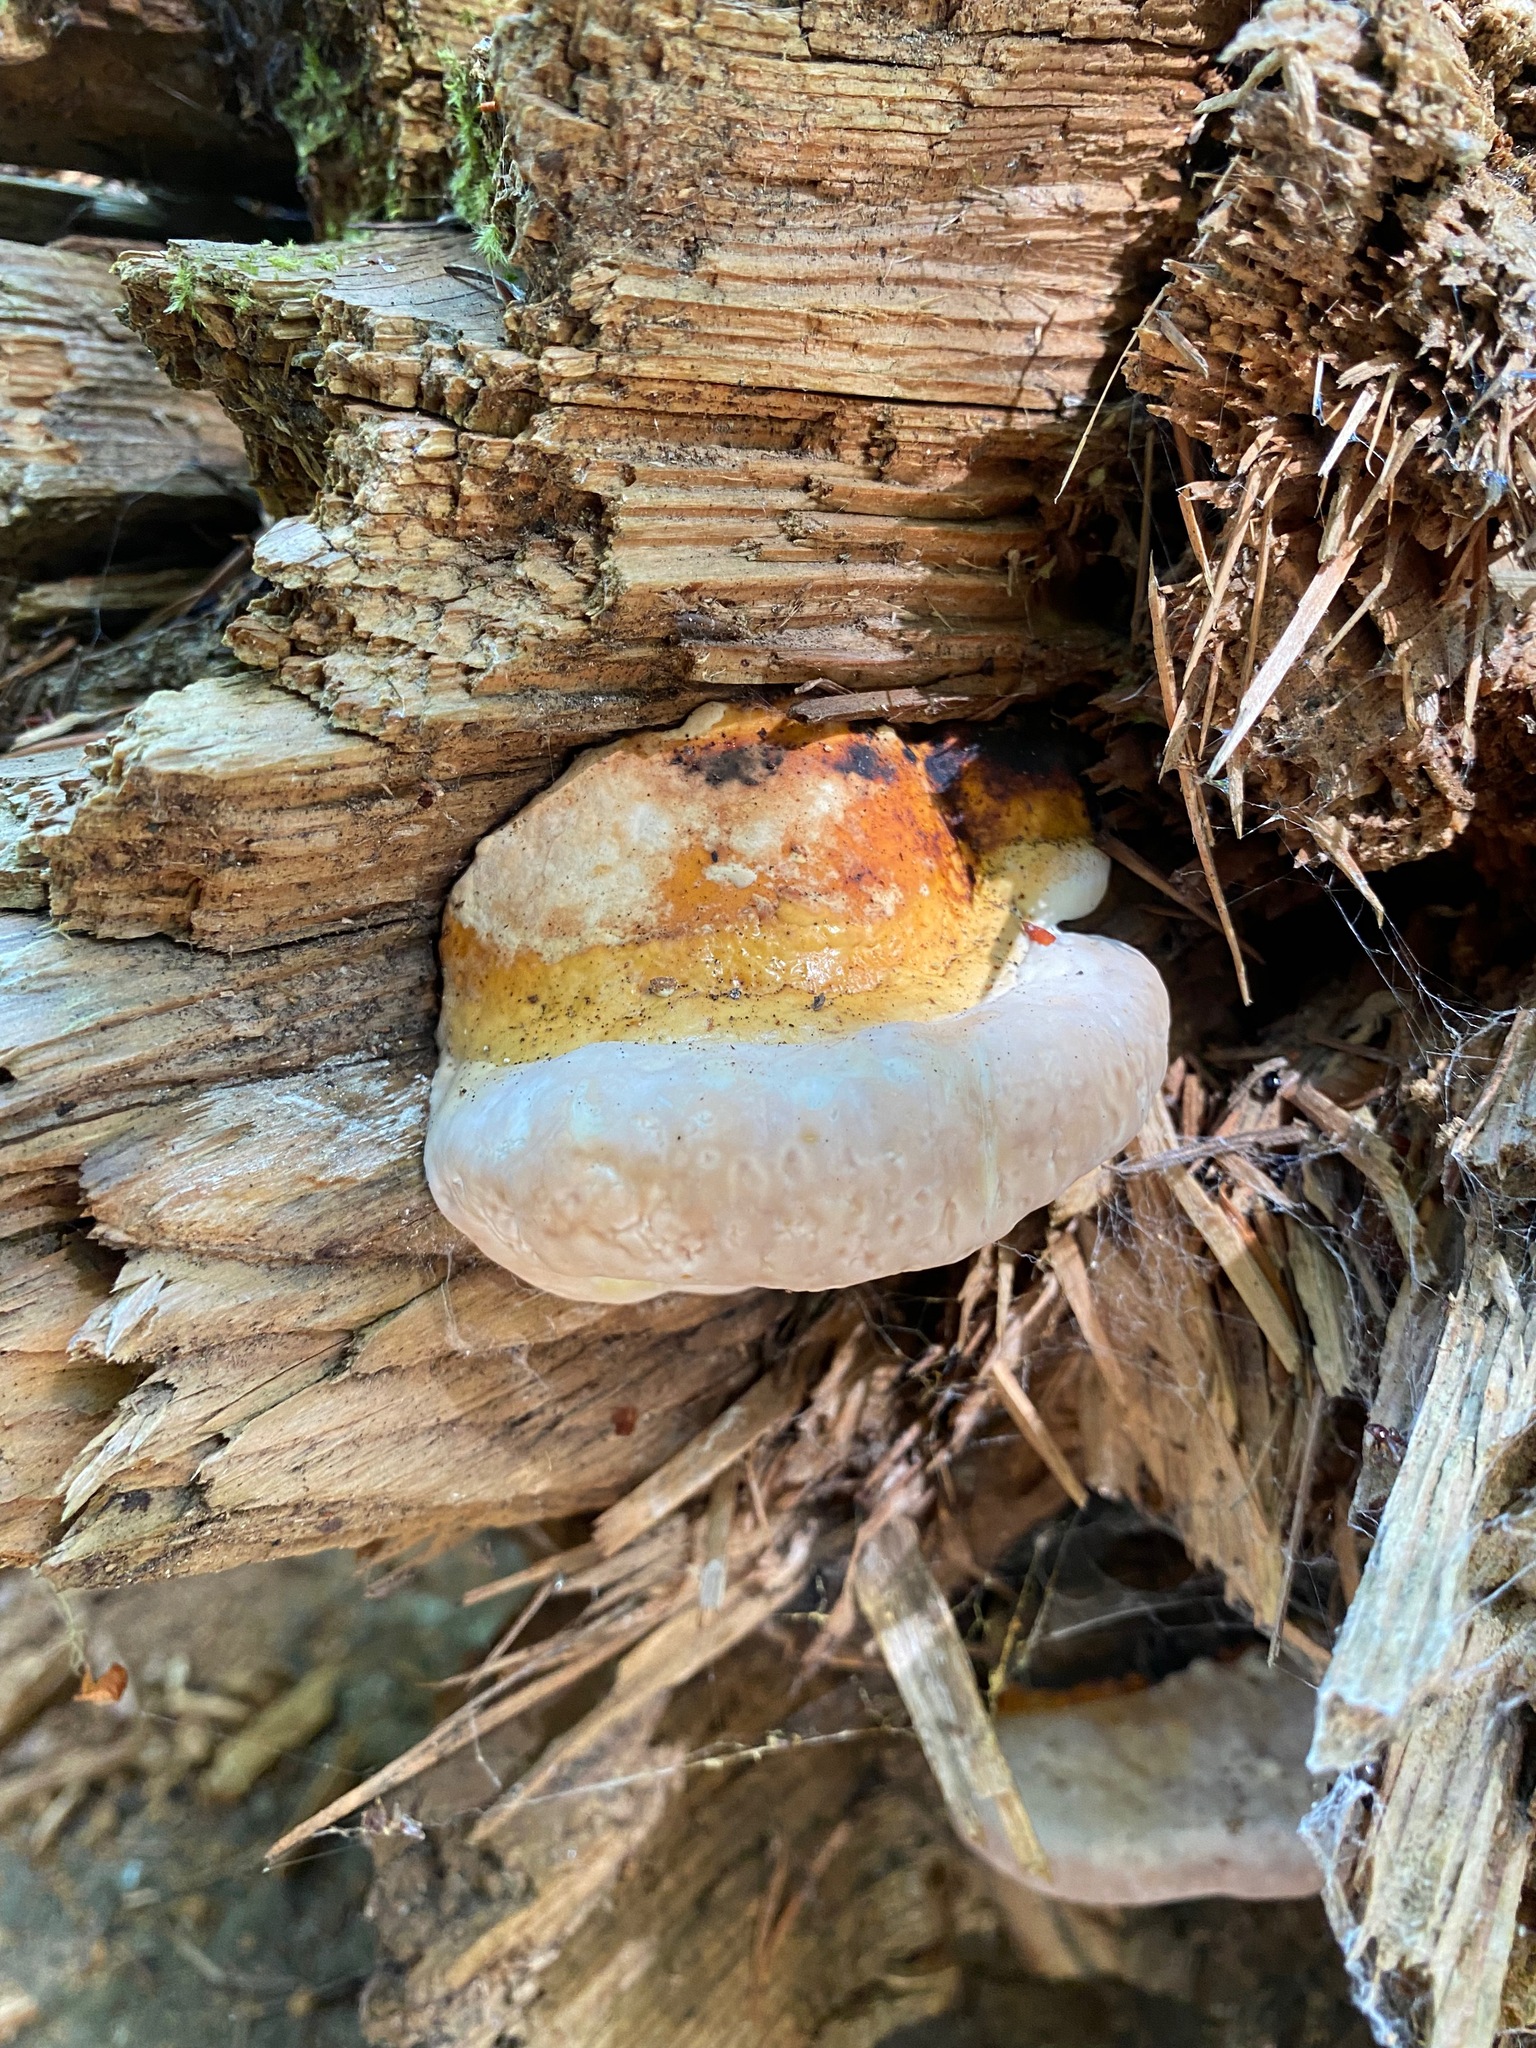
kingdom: Fungi
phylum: Basidiomycota
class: Agaricomycetes
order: Polyporales
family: Fomitopsidaceae
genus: Fomitopsis
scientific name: Fomitopsis mounceae
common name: Northern red belt
